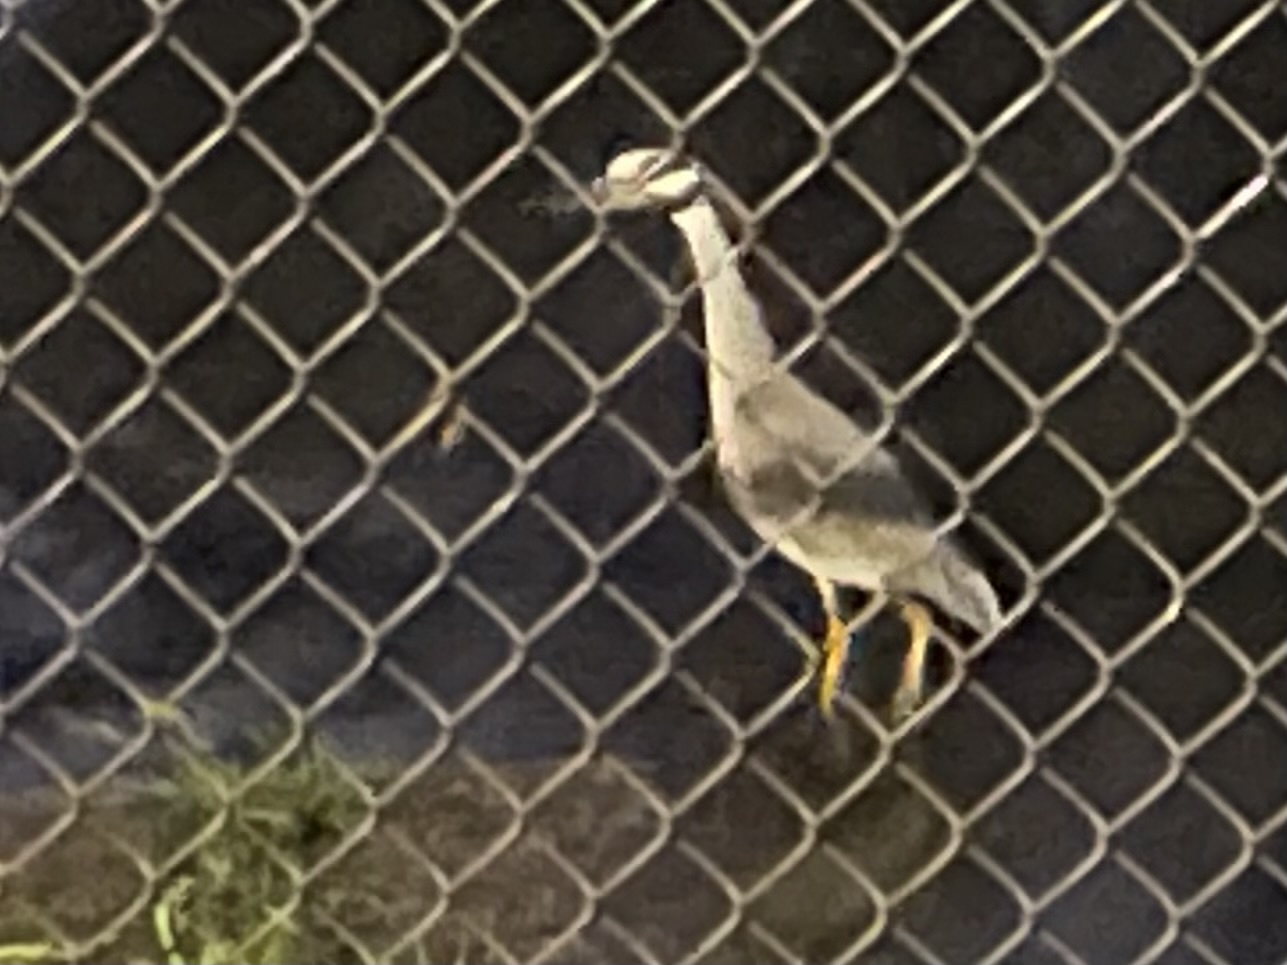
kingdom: Animalia
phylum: Chordata
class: Aves
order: Pelecaniformes
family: Ardeidae
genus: Nyctanassa
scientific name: Nyctanassa violacea
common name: Yellow-crowned night heron
